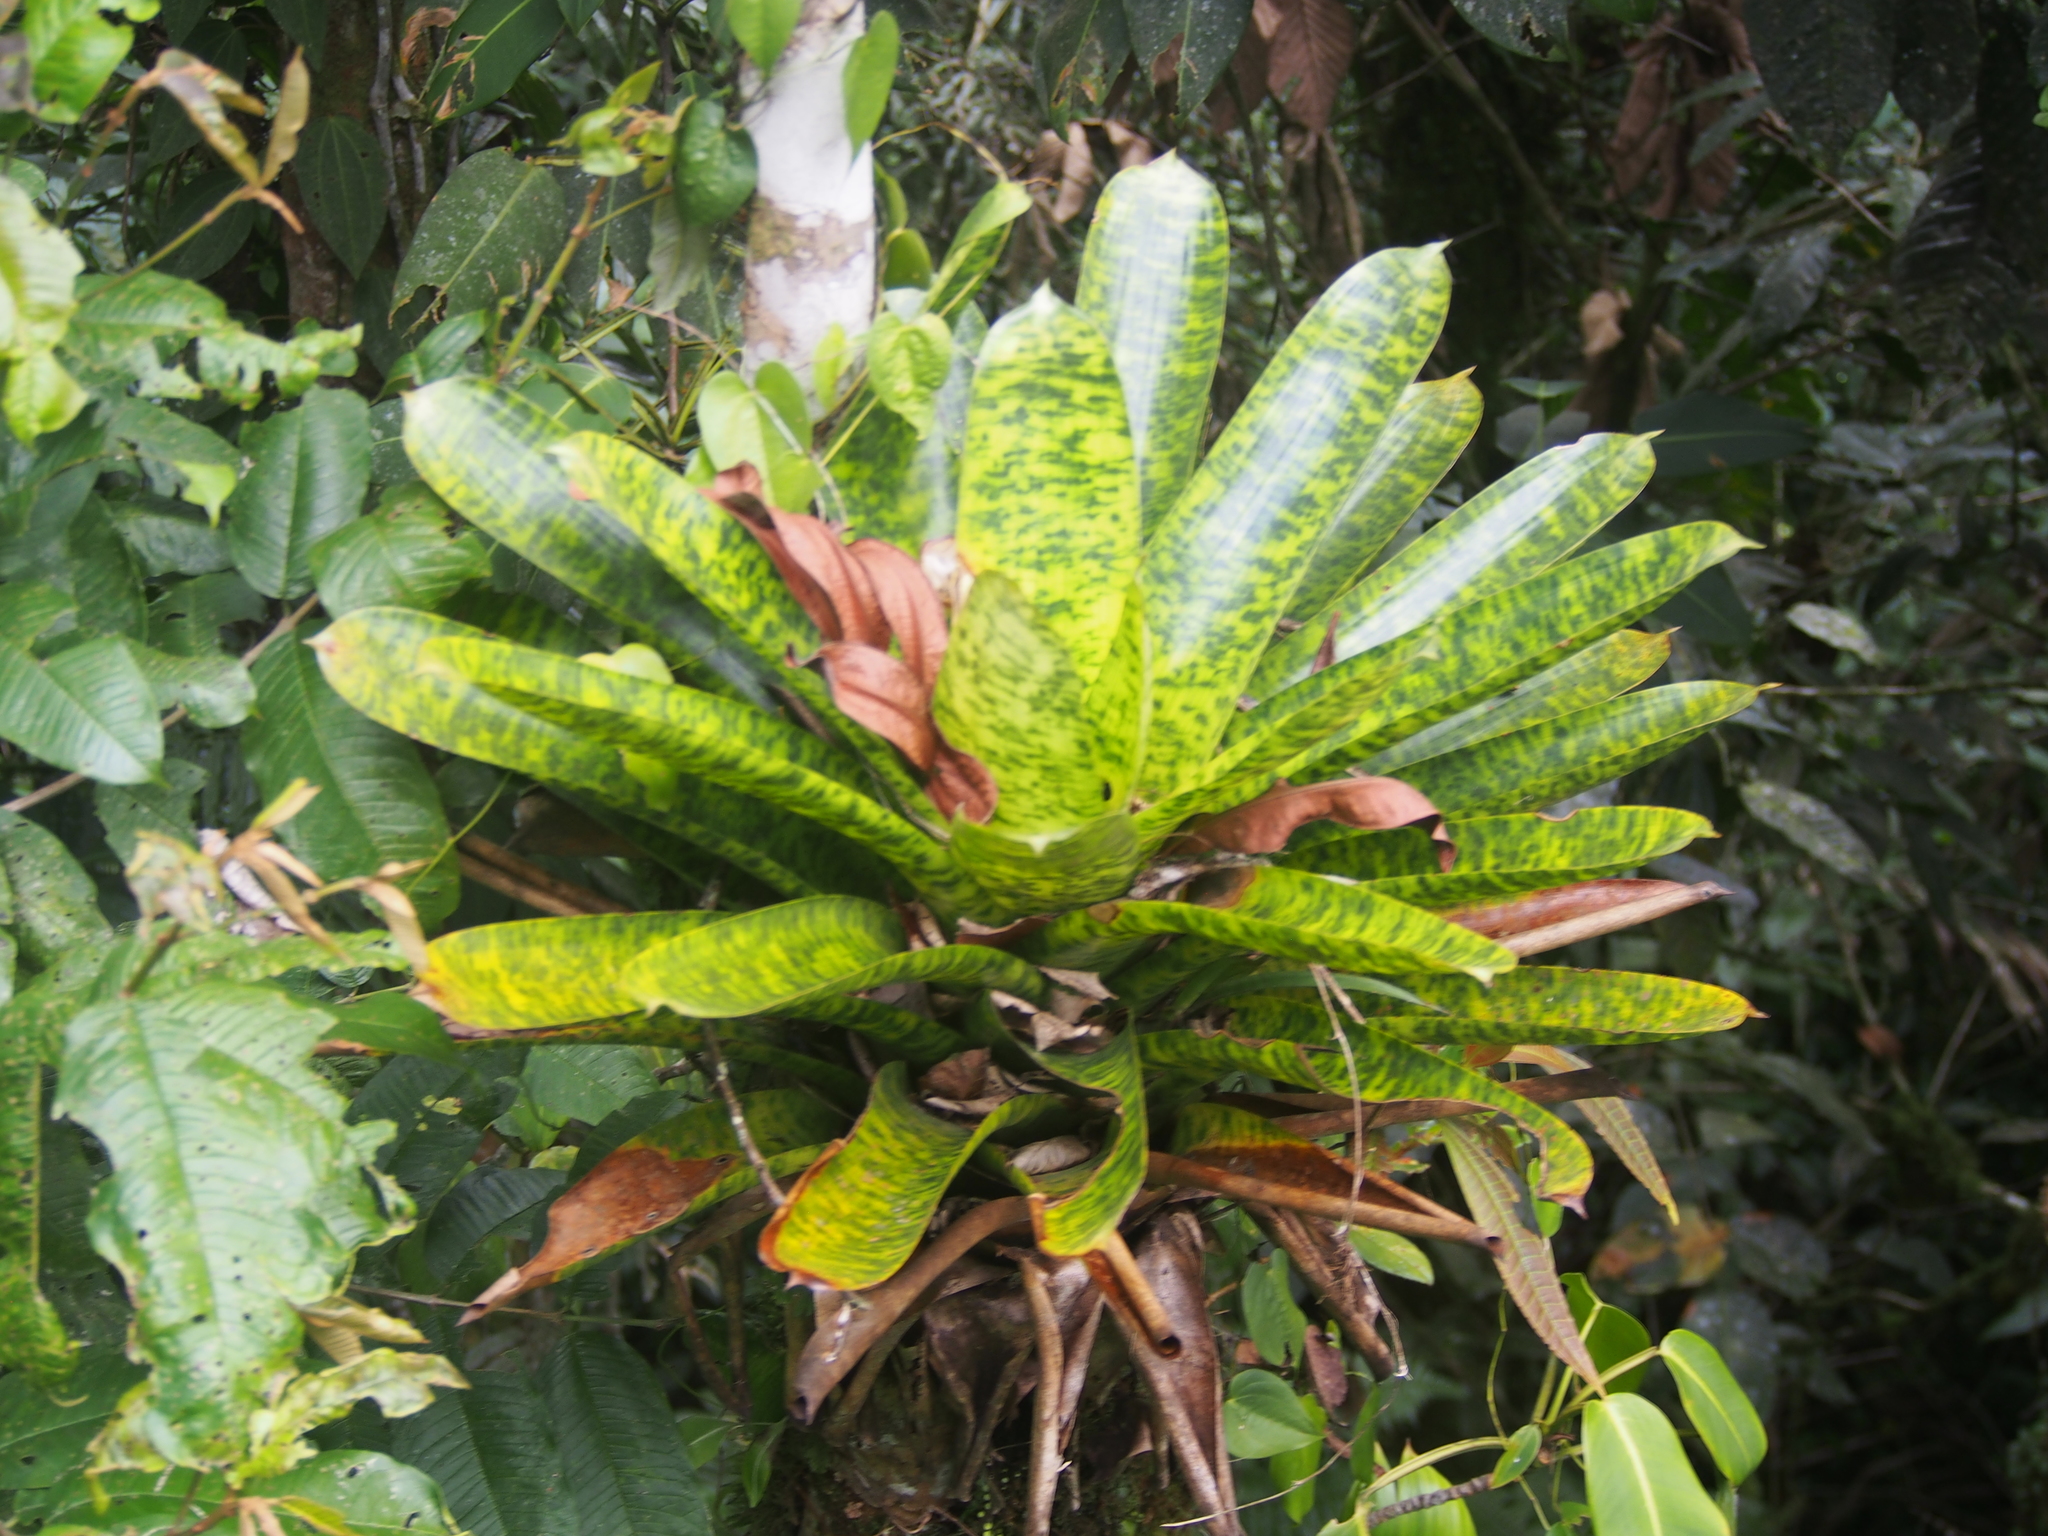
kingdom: Plantae
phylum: Tracheophyta
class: Liliopsida
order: Poales
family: Bromeliaceae
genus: Werauhia
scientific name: Werauhia kupperiana
